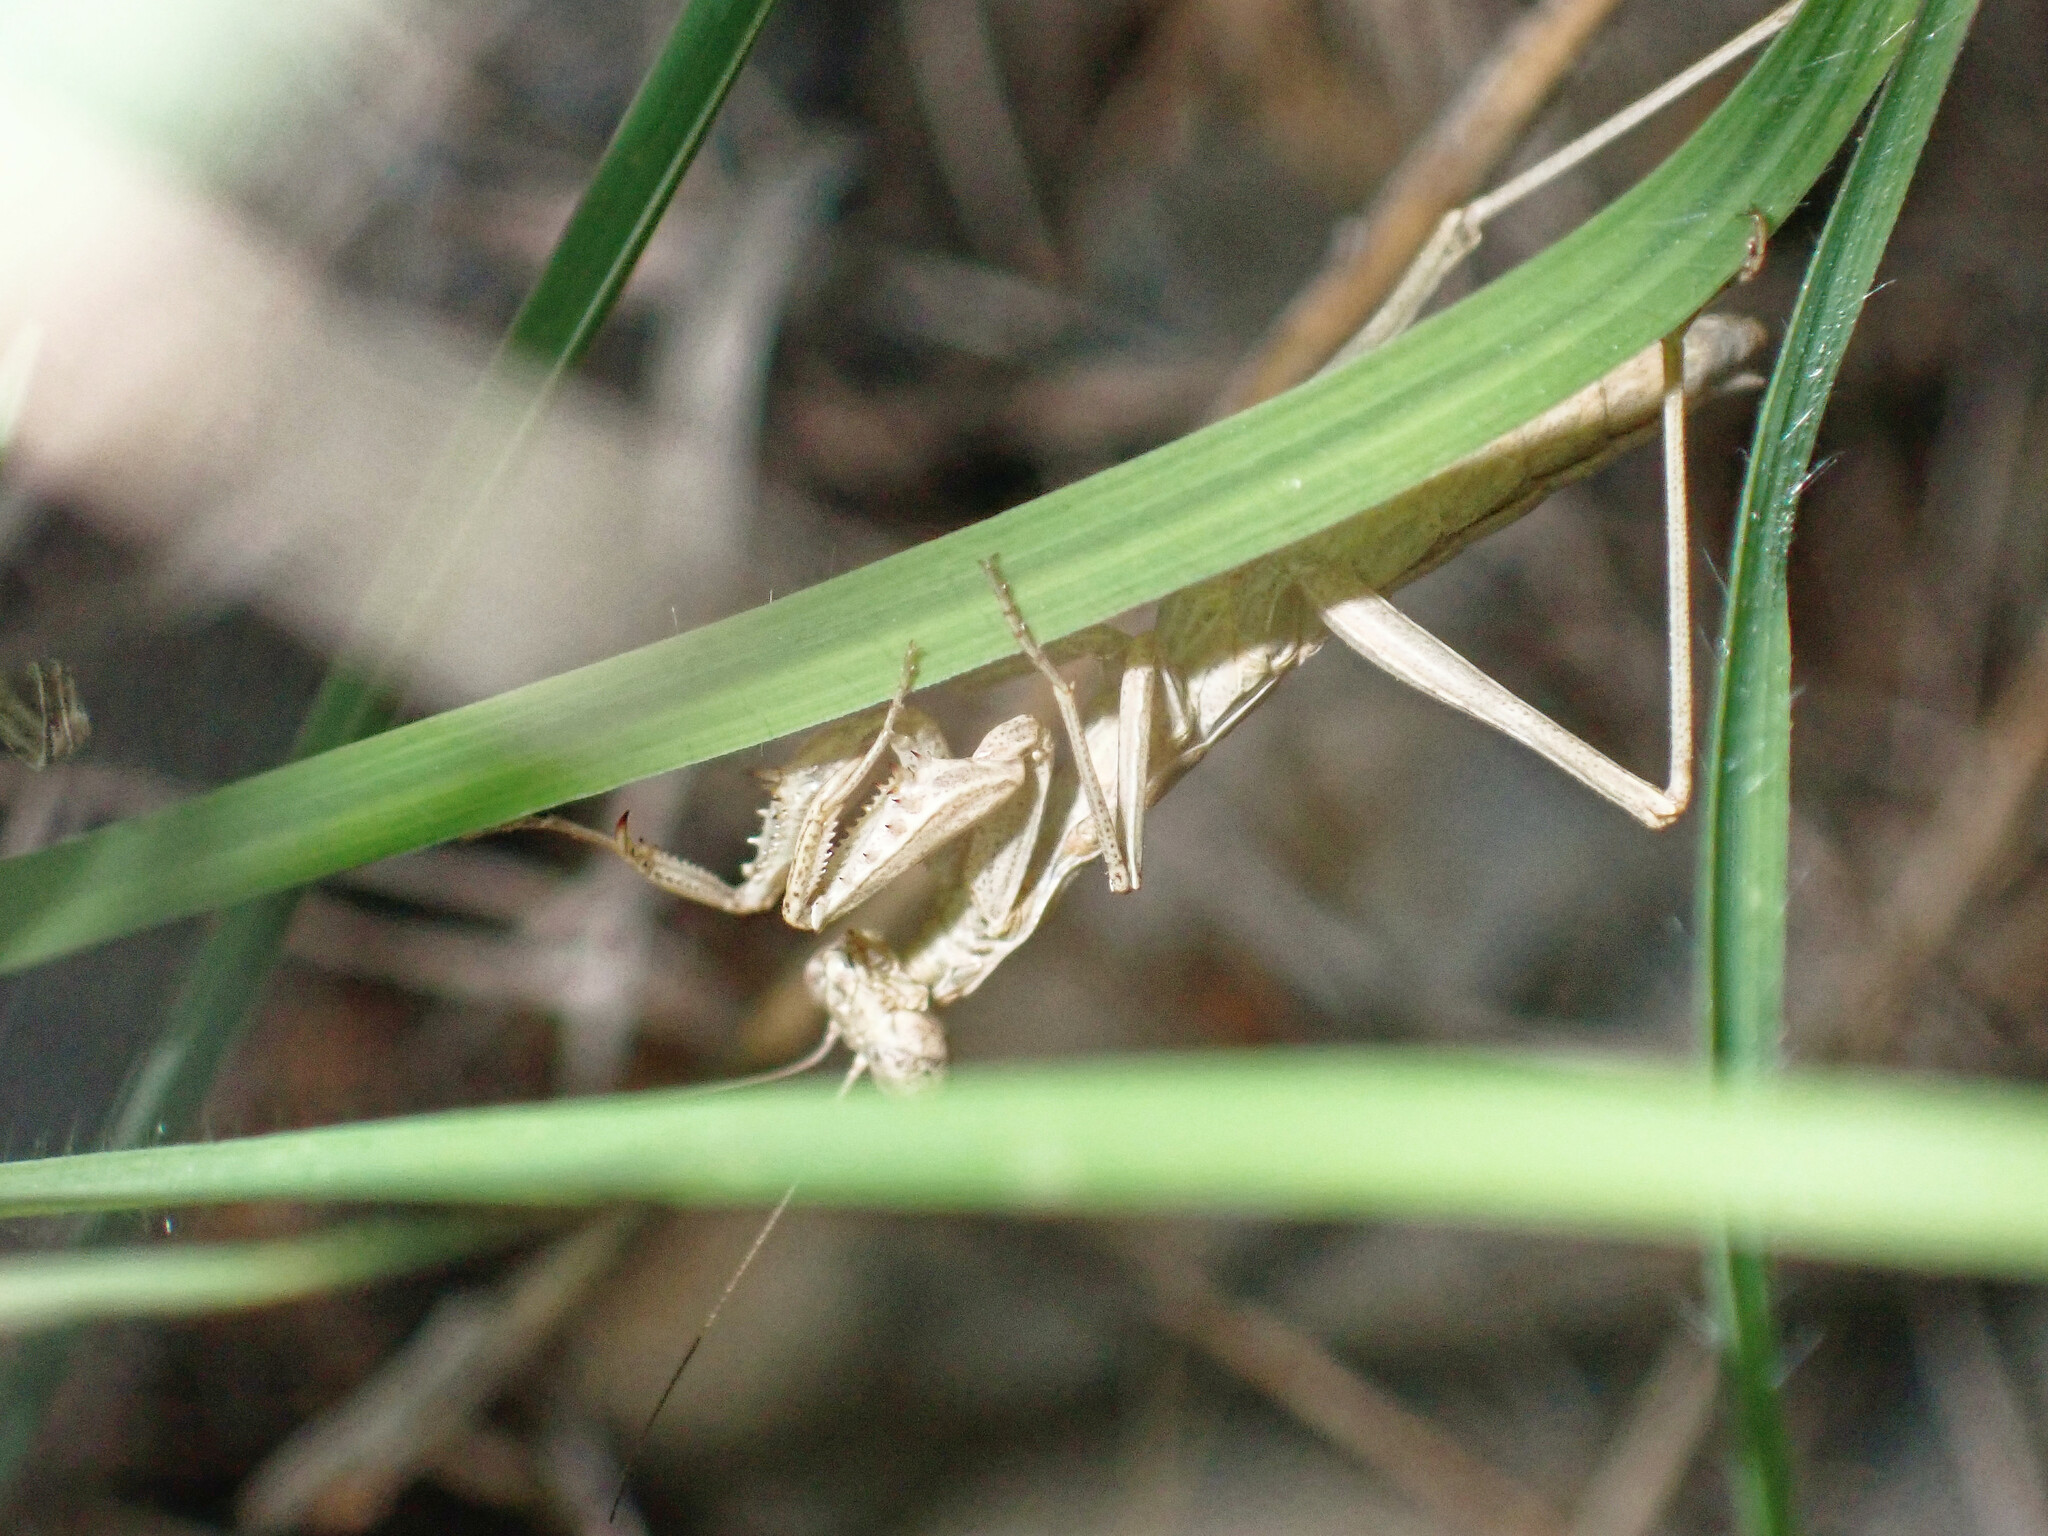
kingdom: Animalia
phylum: Arthropoda
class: Insecta
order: Mantodea
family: Amelidae
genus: Ameles
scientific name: Ameles decolor
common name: Dwarf mantis
